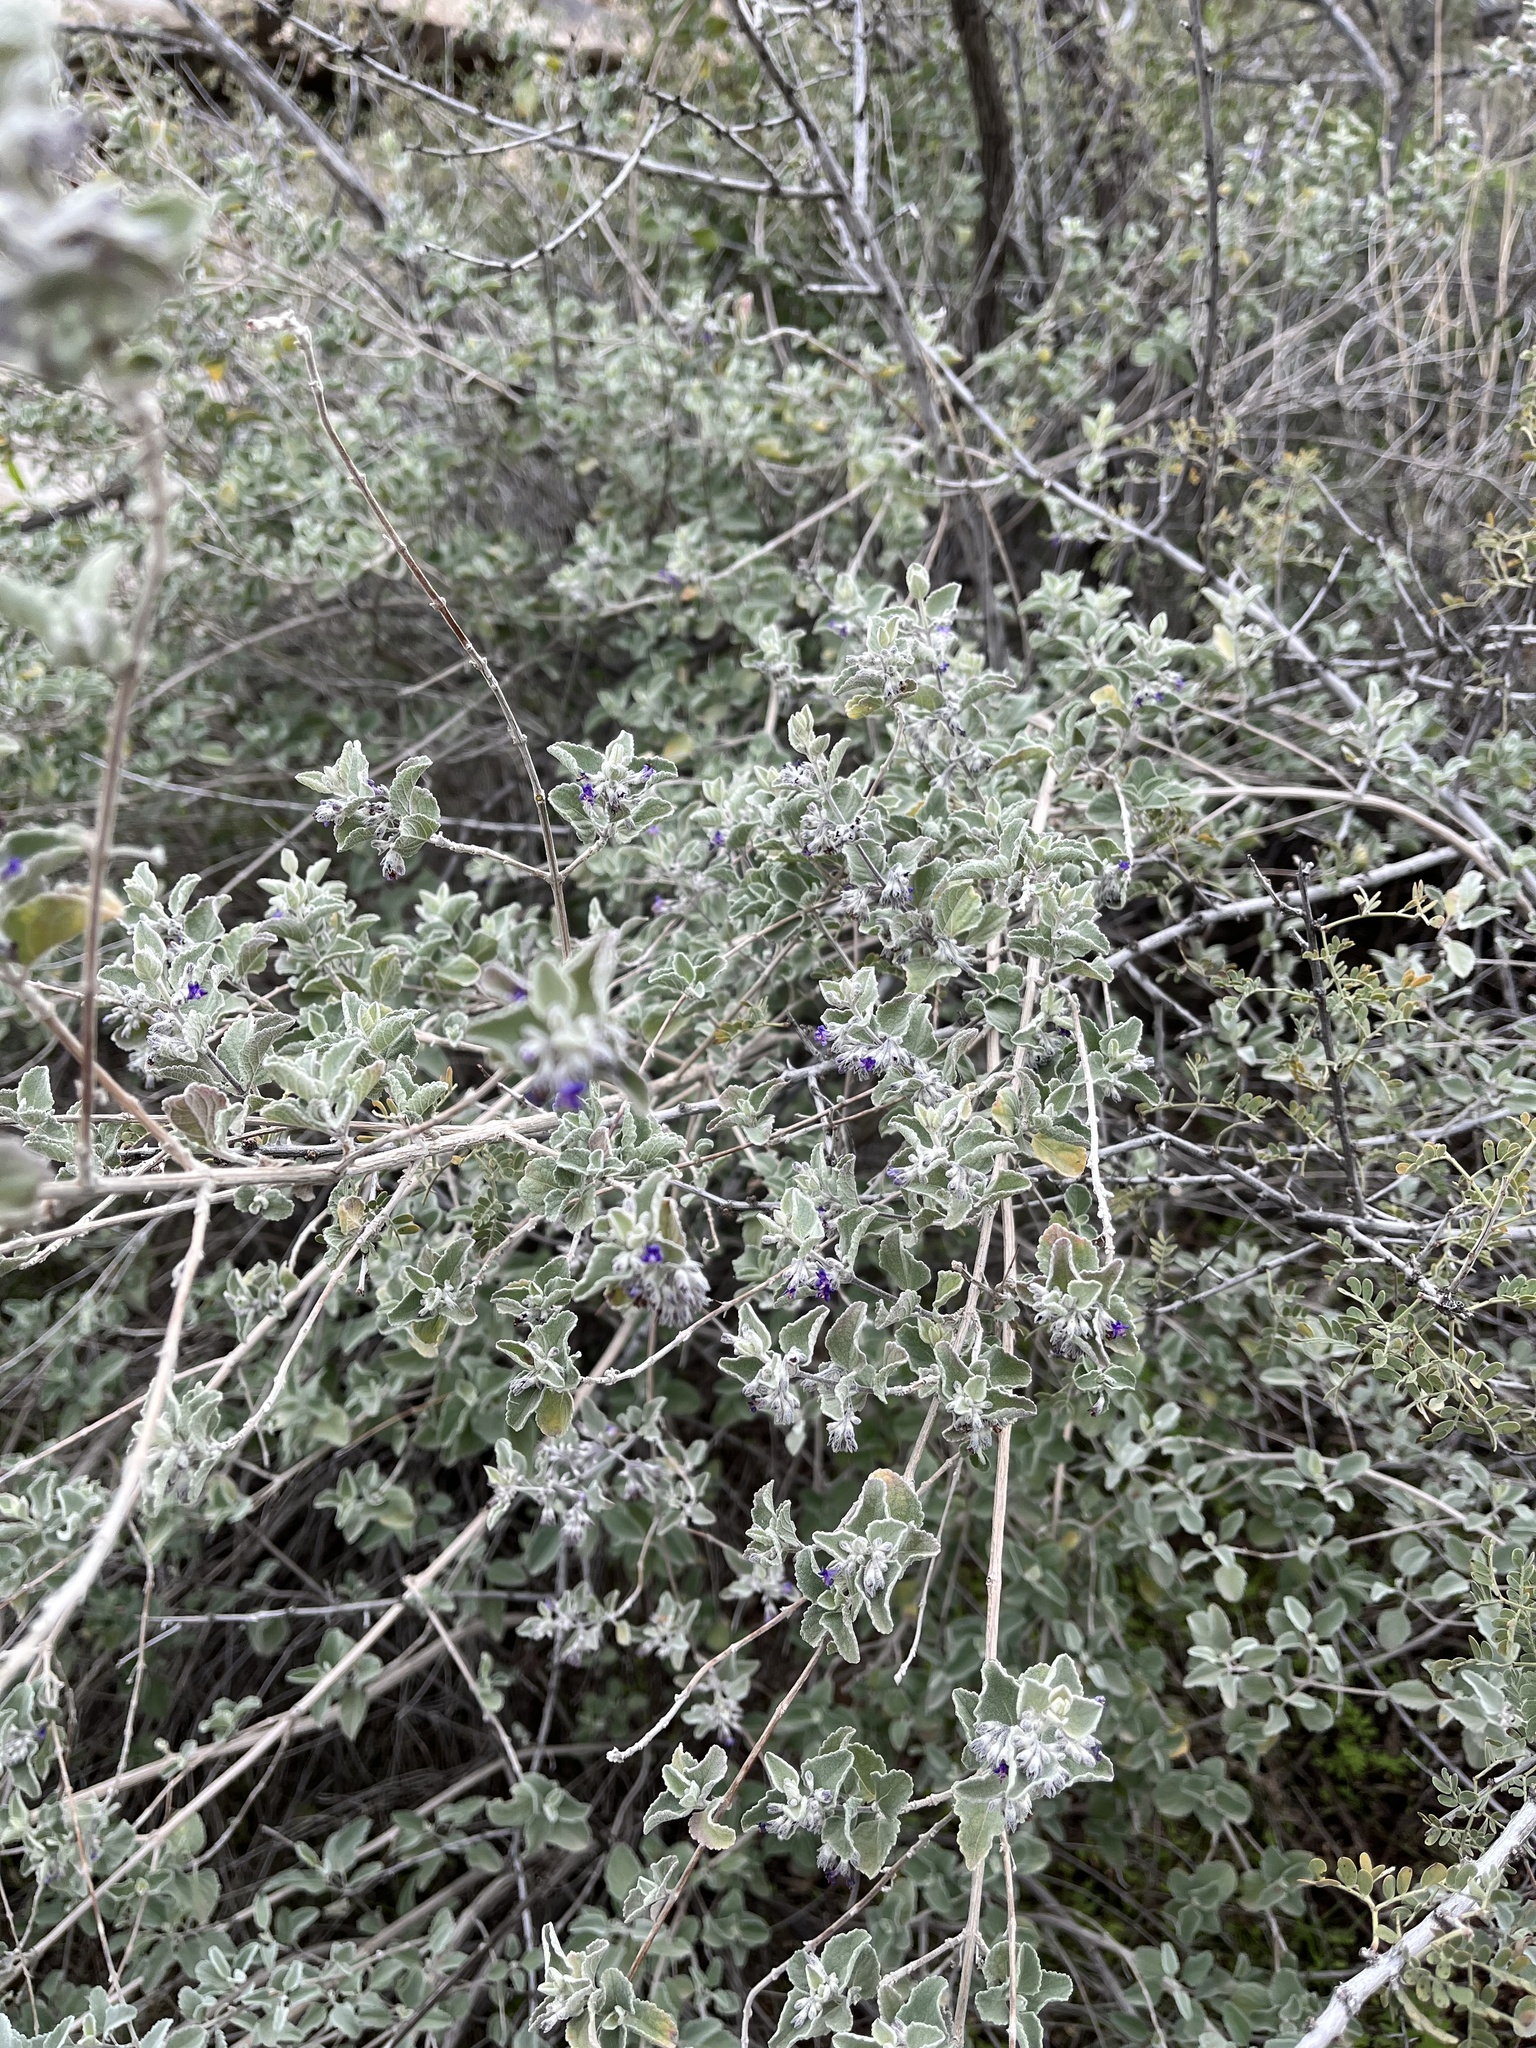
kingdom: Plantae
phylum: Tracheophyta
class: Magnoliopsida
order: Lamiales
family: Lamiaceae
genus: Condea
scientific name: Condea emoryi
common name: Chia
